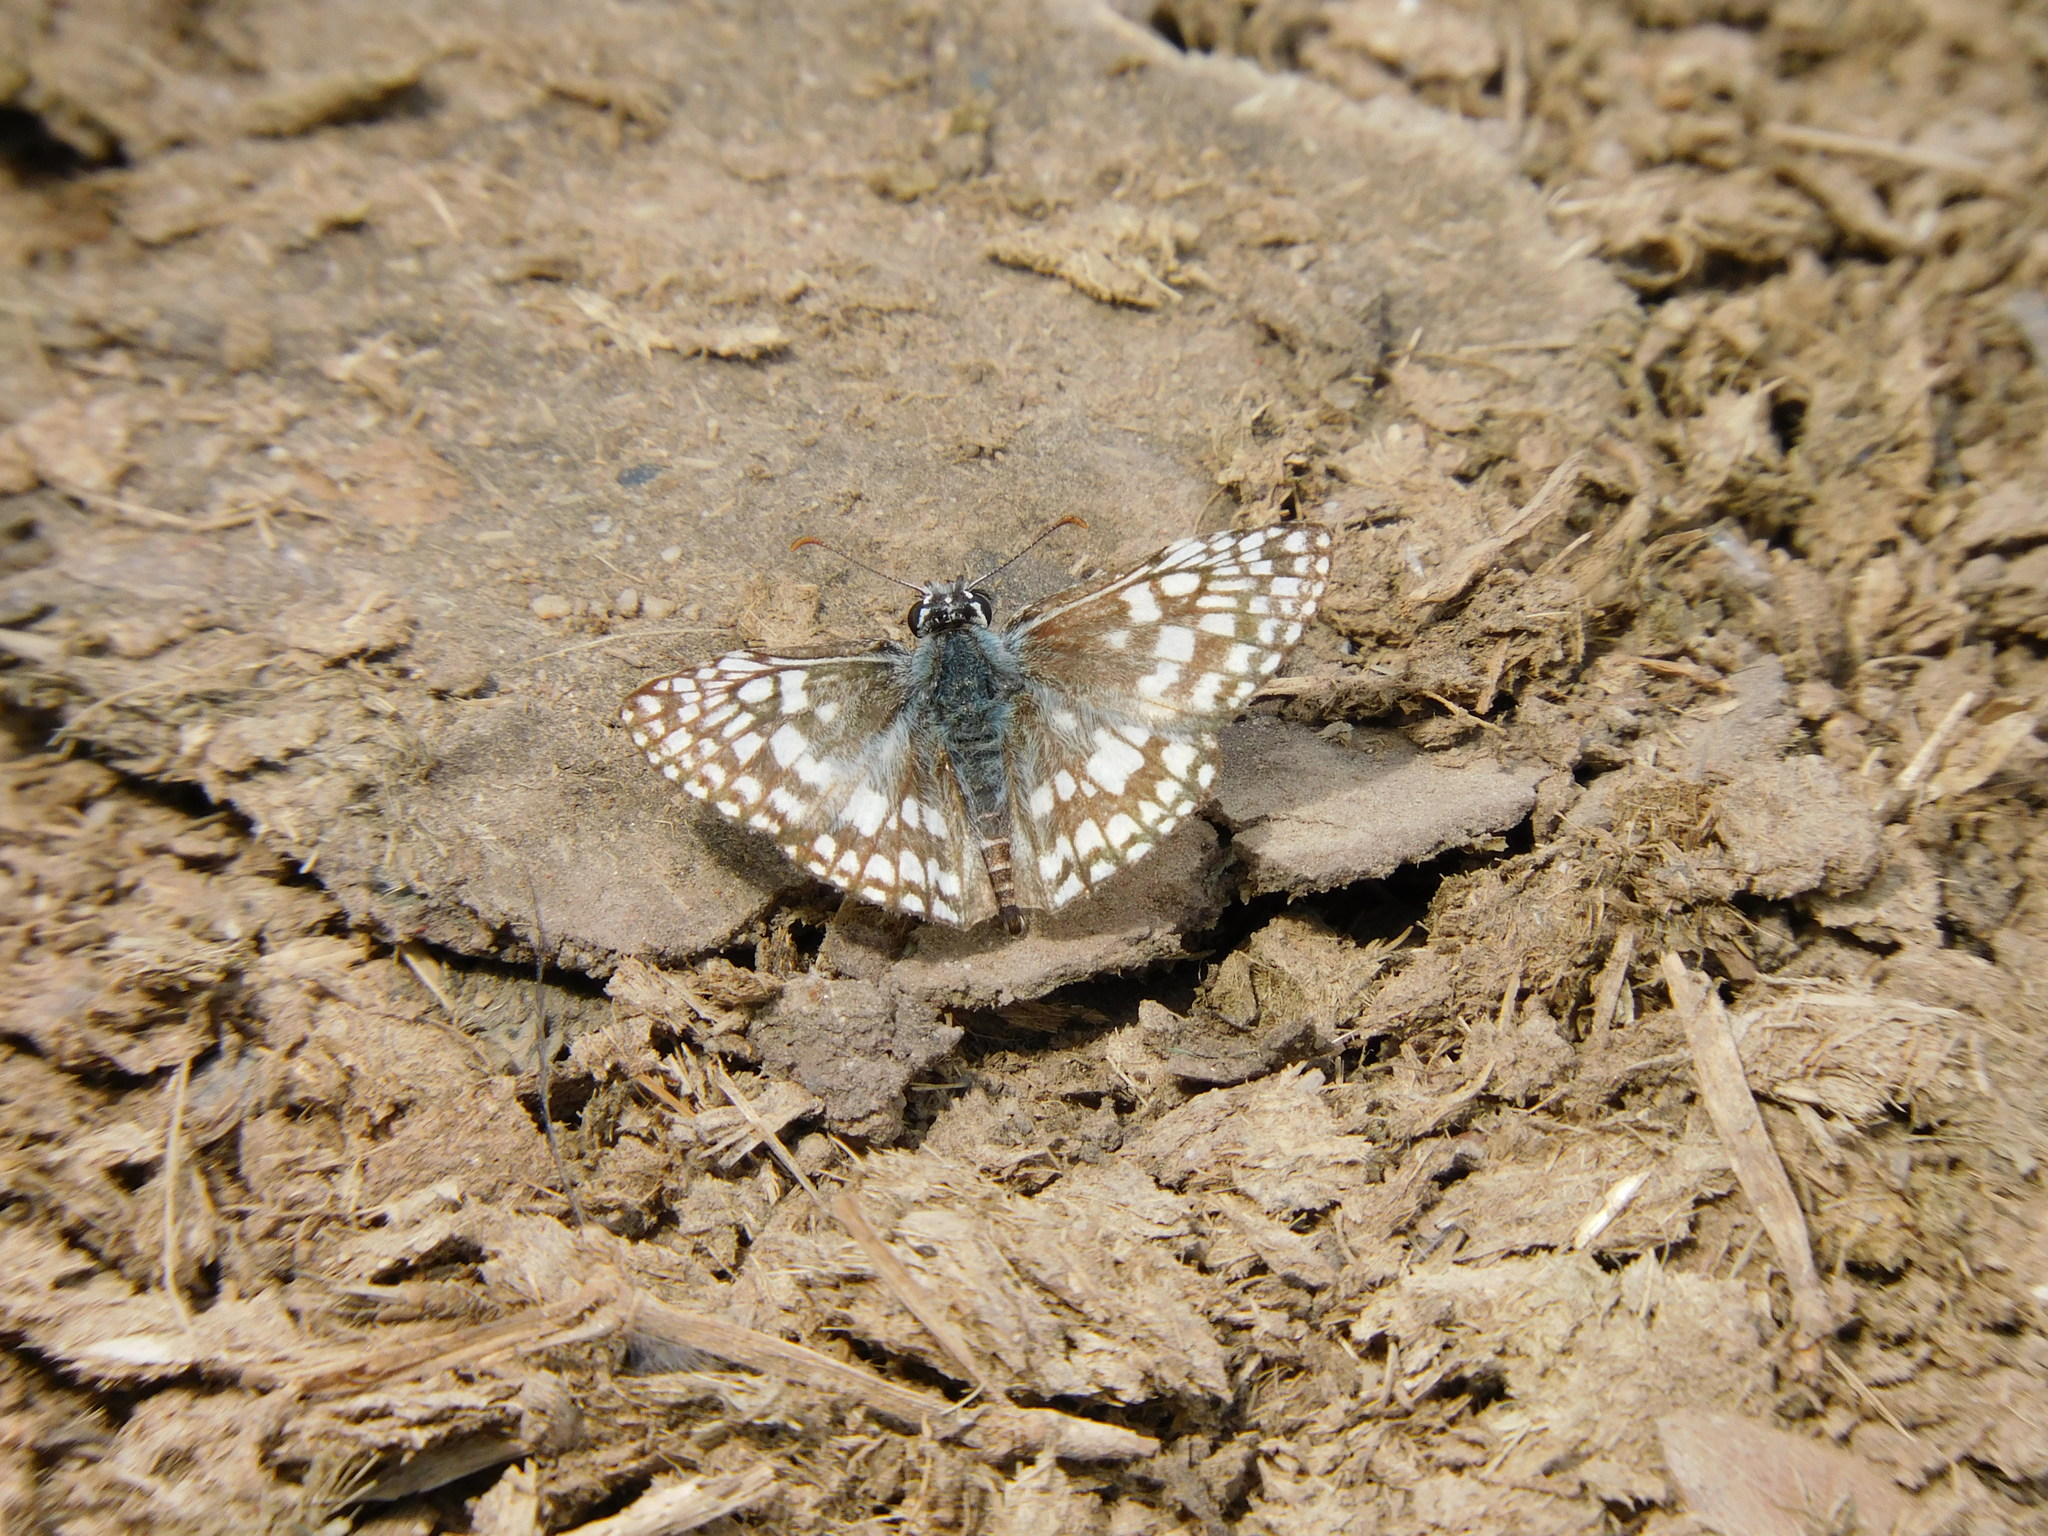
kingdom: Animalia
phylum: Arthropoda
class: Insecta
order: Lepidoptera
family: Hesperiidae
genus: Pyrgus
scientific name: Pyrgus oileus
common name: Tropical checkered-skipper
